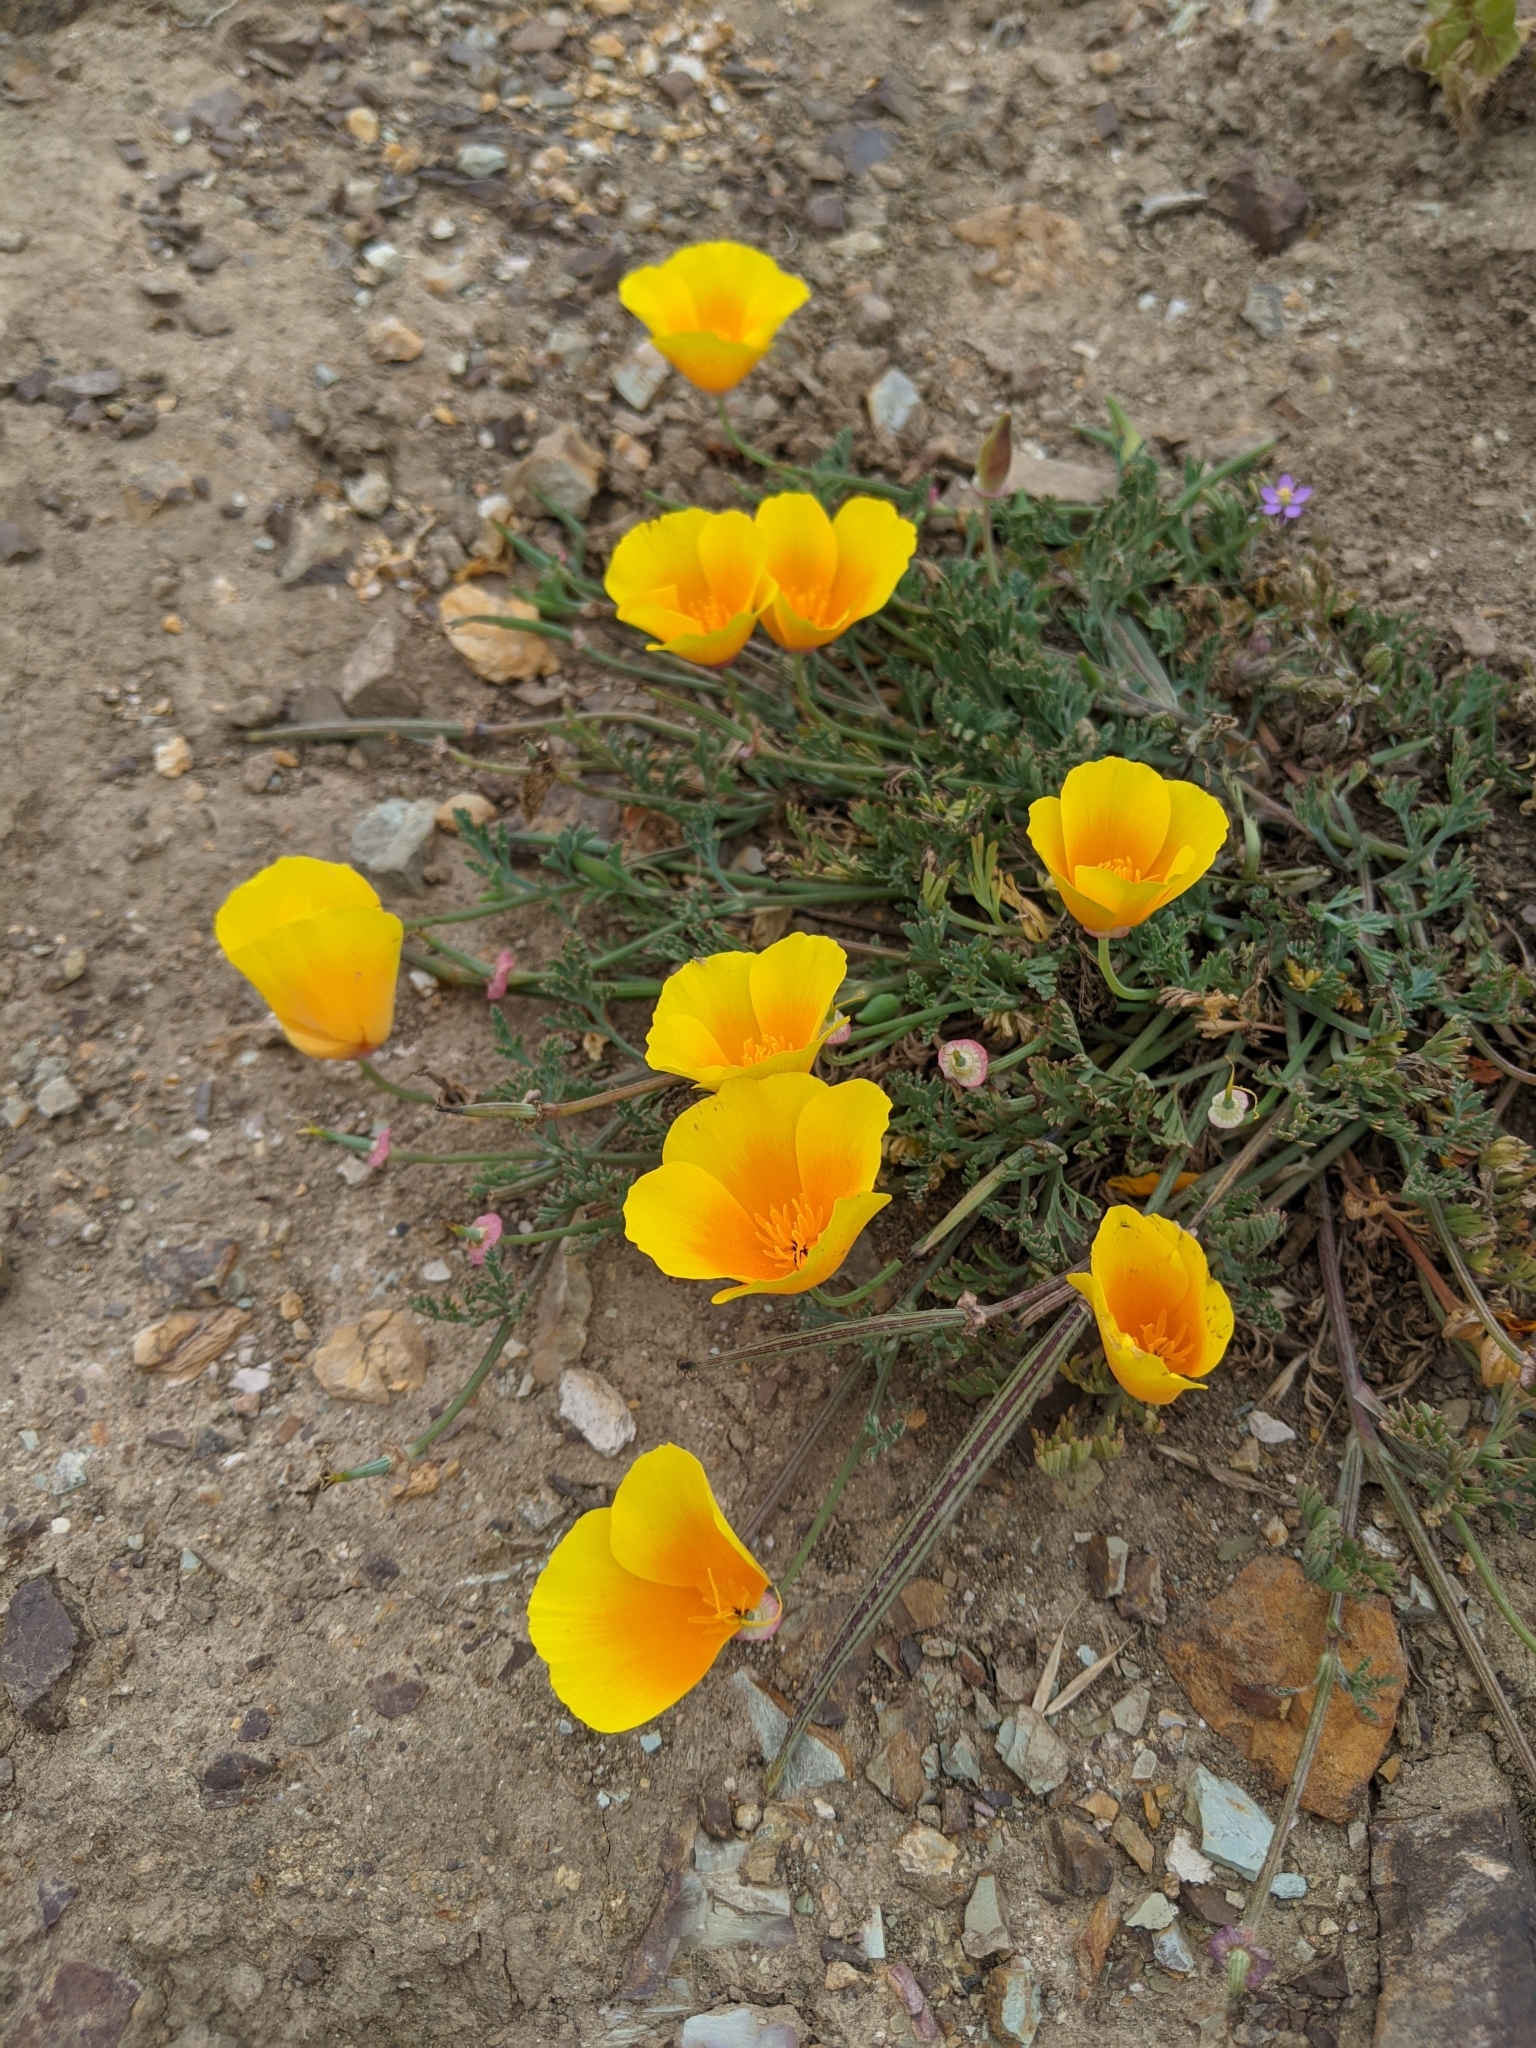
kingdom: Plantae
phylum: Tracheophyta
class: Magnoliopsida
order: Ranunculales
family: Papaveraceae
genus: Eschscholzia
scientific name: Eschscholzia californica
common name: California poppy
